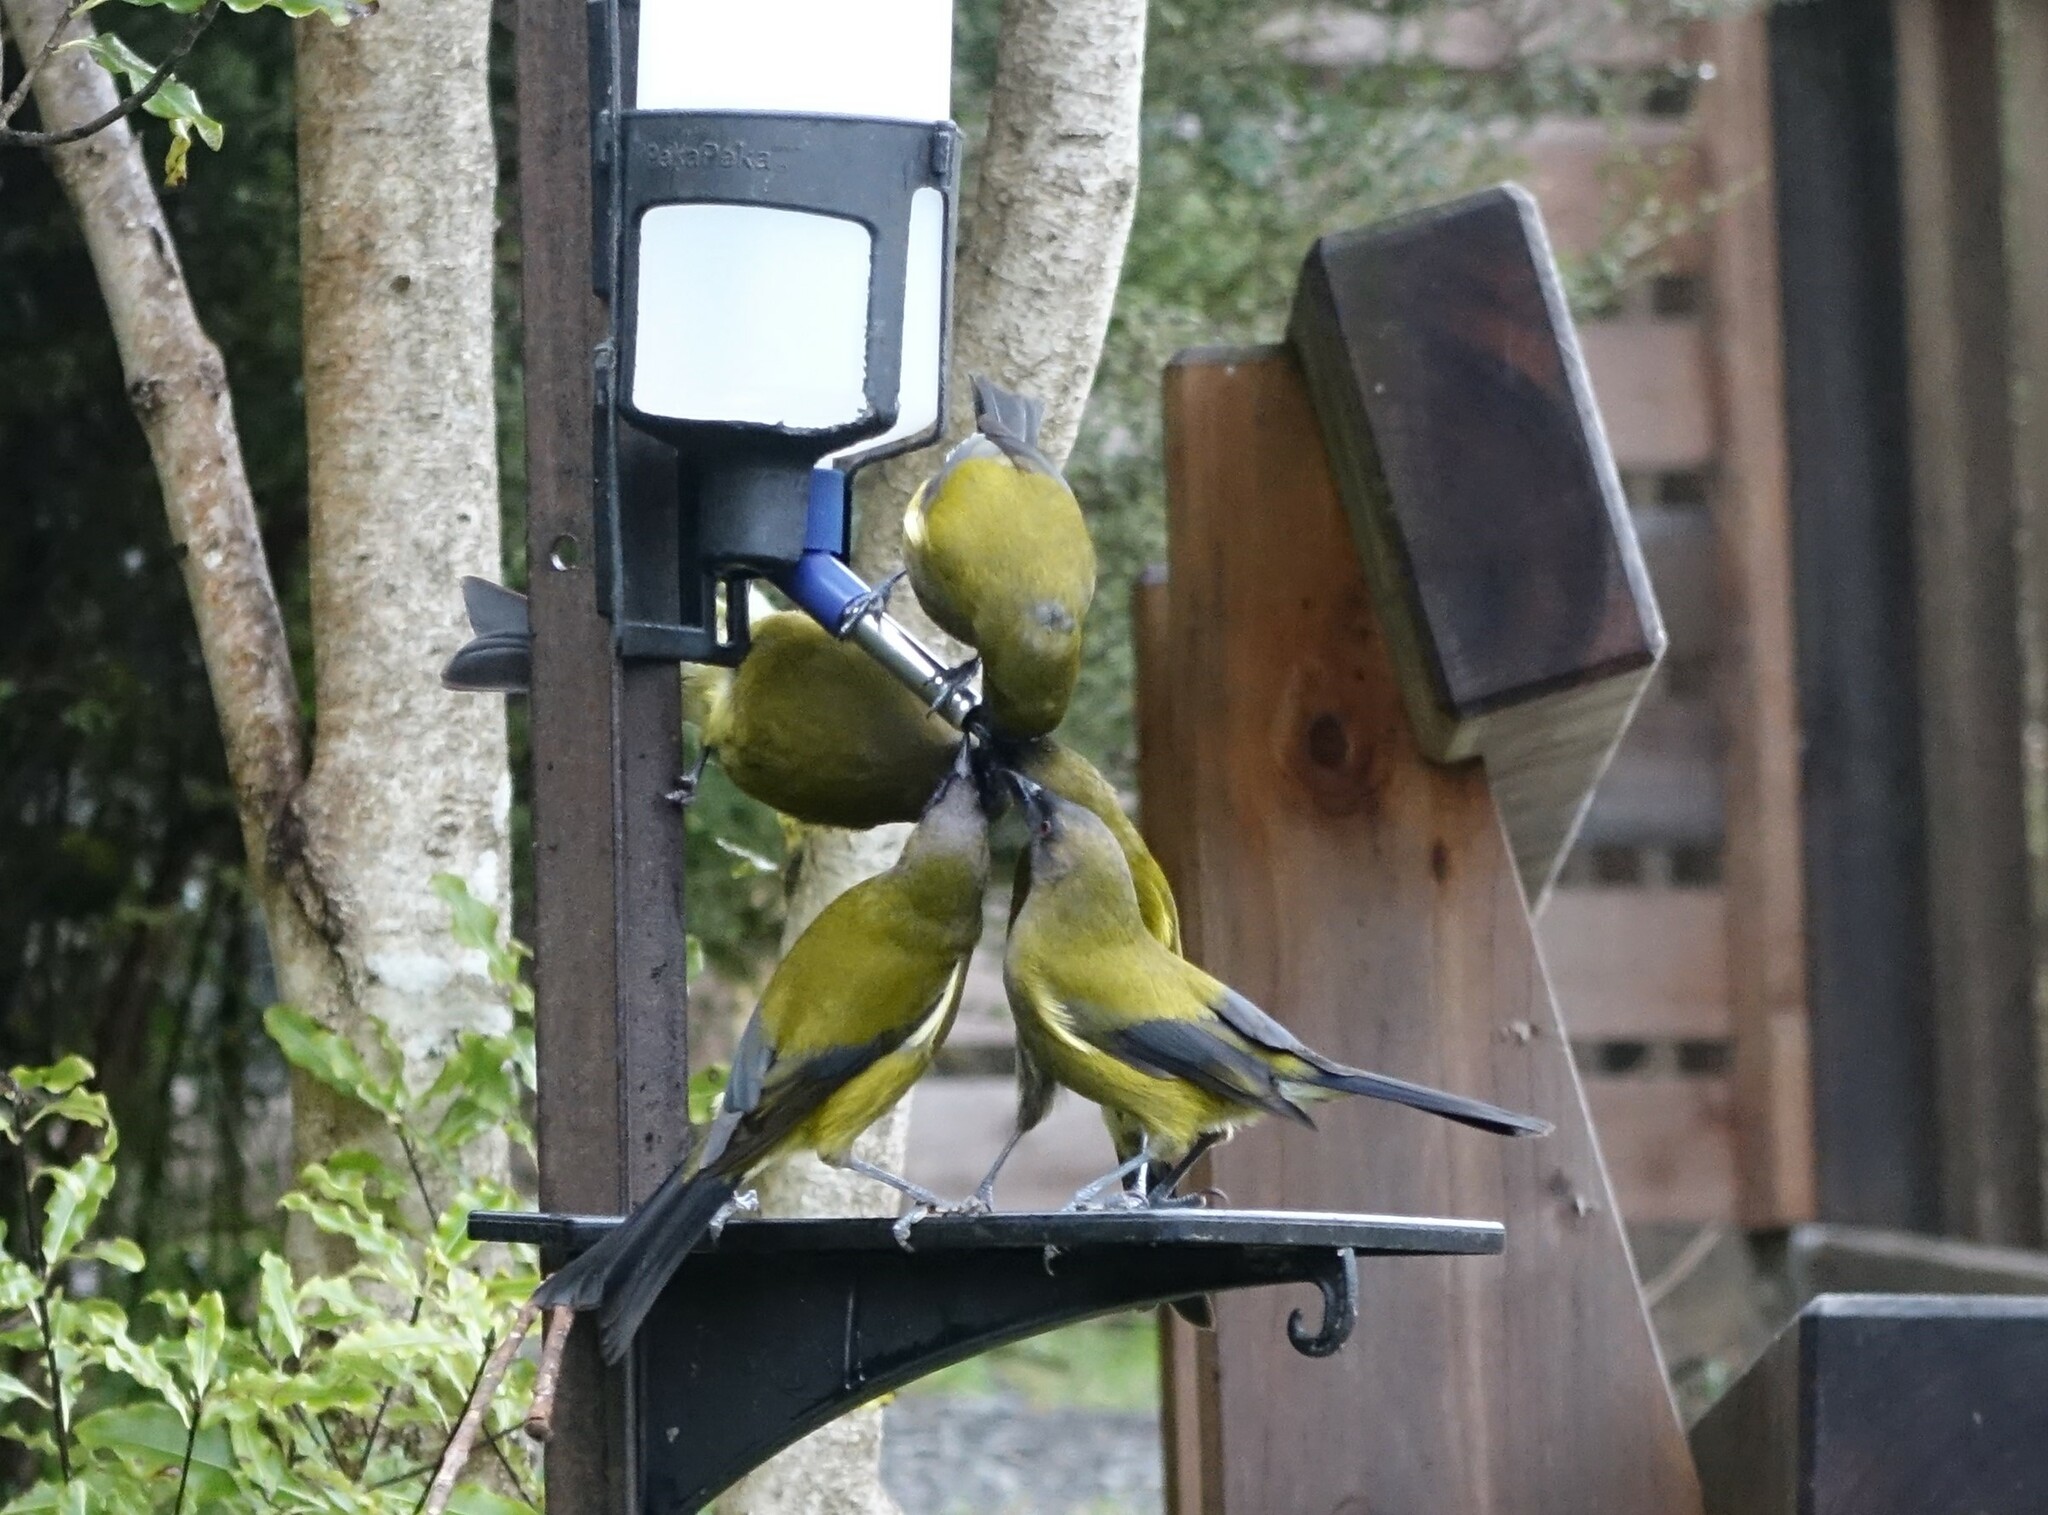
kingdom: Animalia
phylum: Chordata
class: Aves
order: Passeriformes
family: Meliphagidae
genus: Anthornis
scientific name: Anthornis melanura
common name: New zealand bellbird
